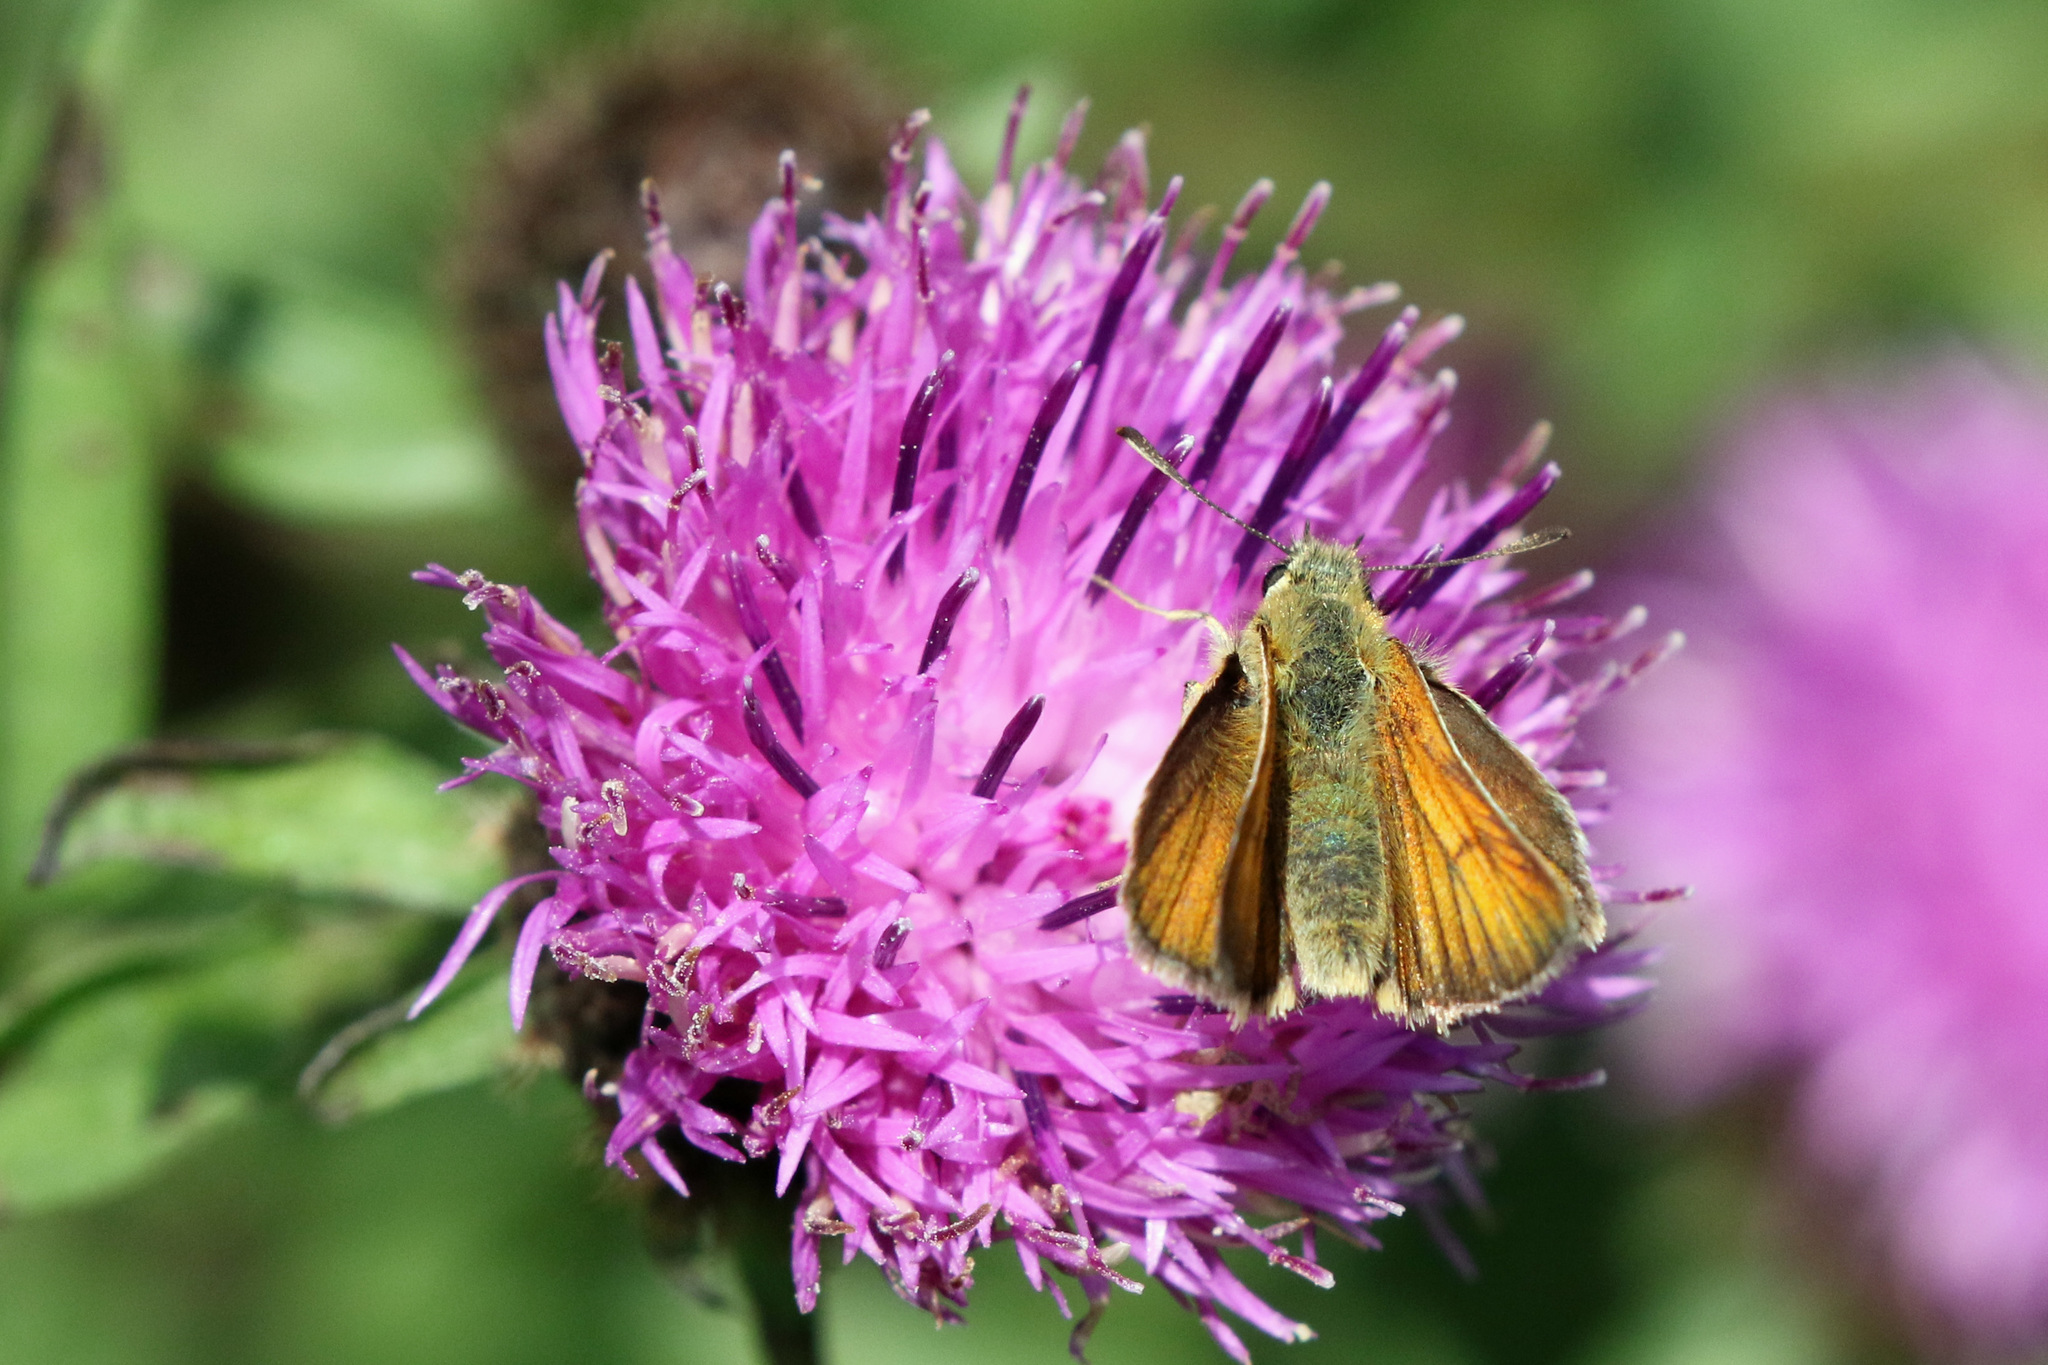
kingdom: Animalia
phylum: Arthropoda
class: Insecta
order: Lepidoptera
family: Hesperiidae
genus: Thymelicus
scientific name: Thymelicus sylvestris
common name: Small skipper
